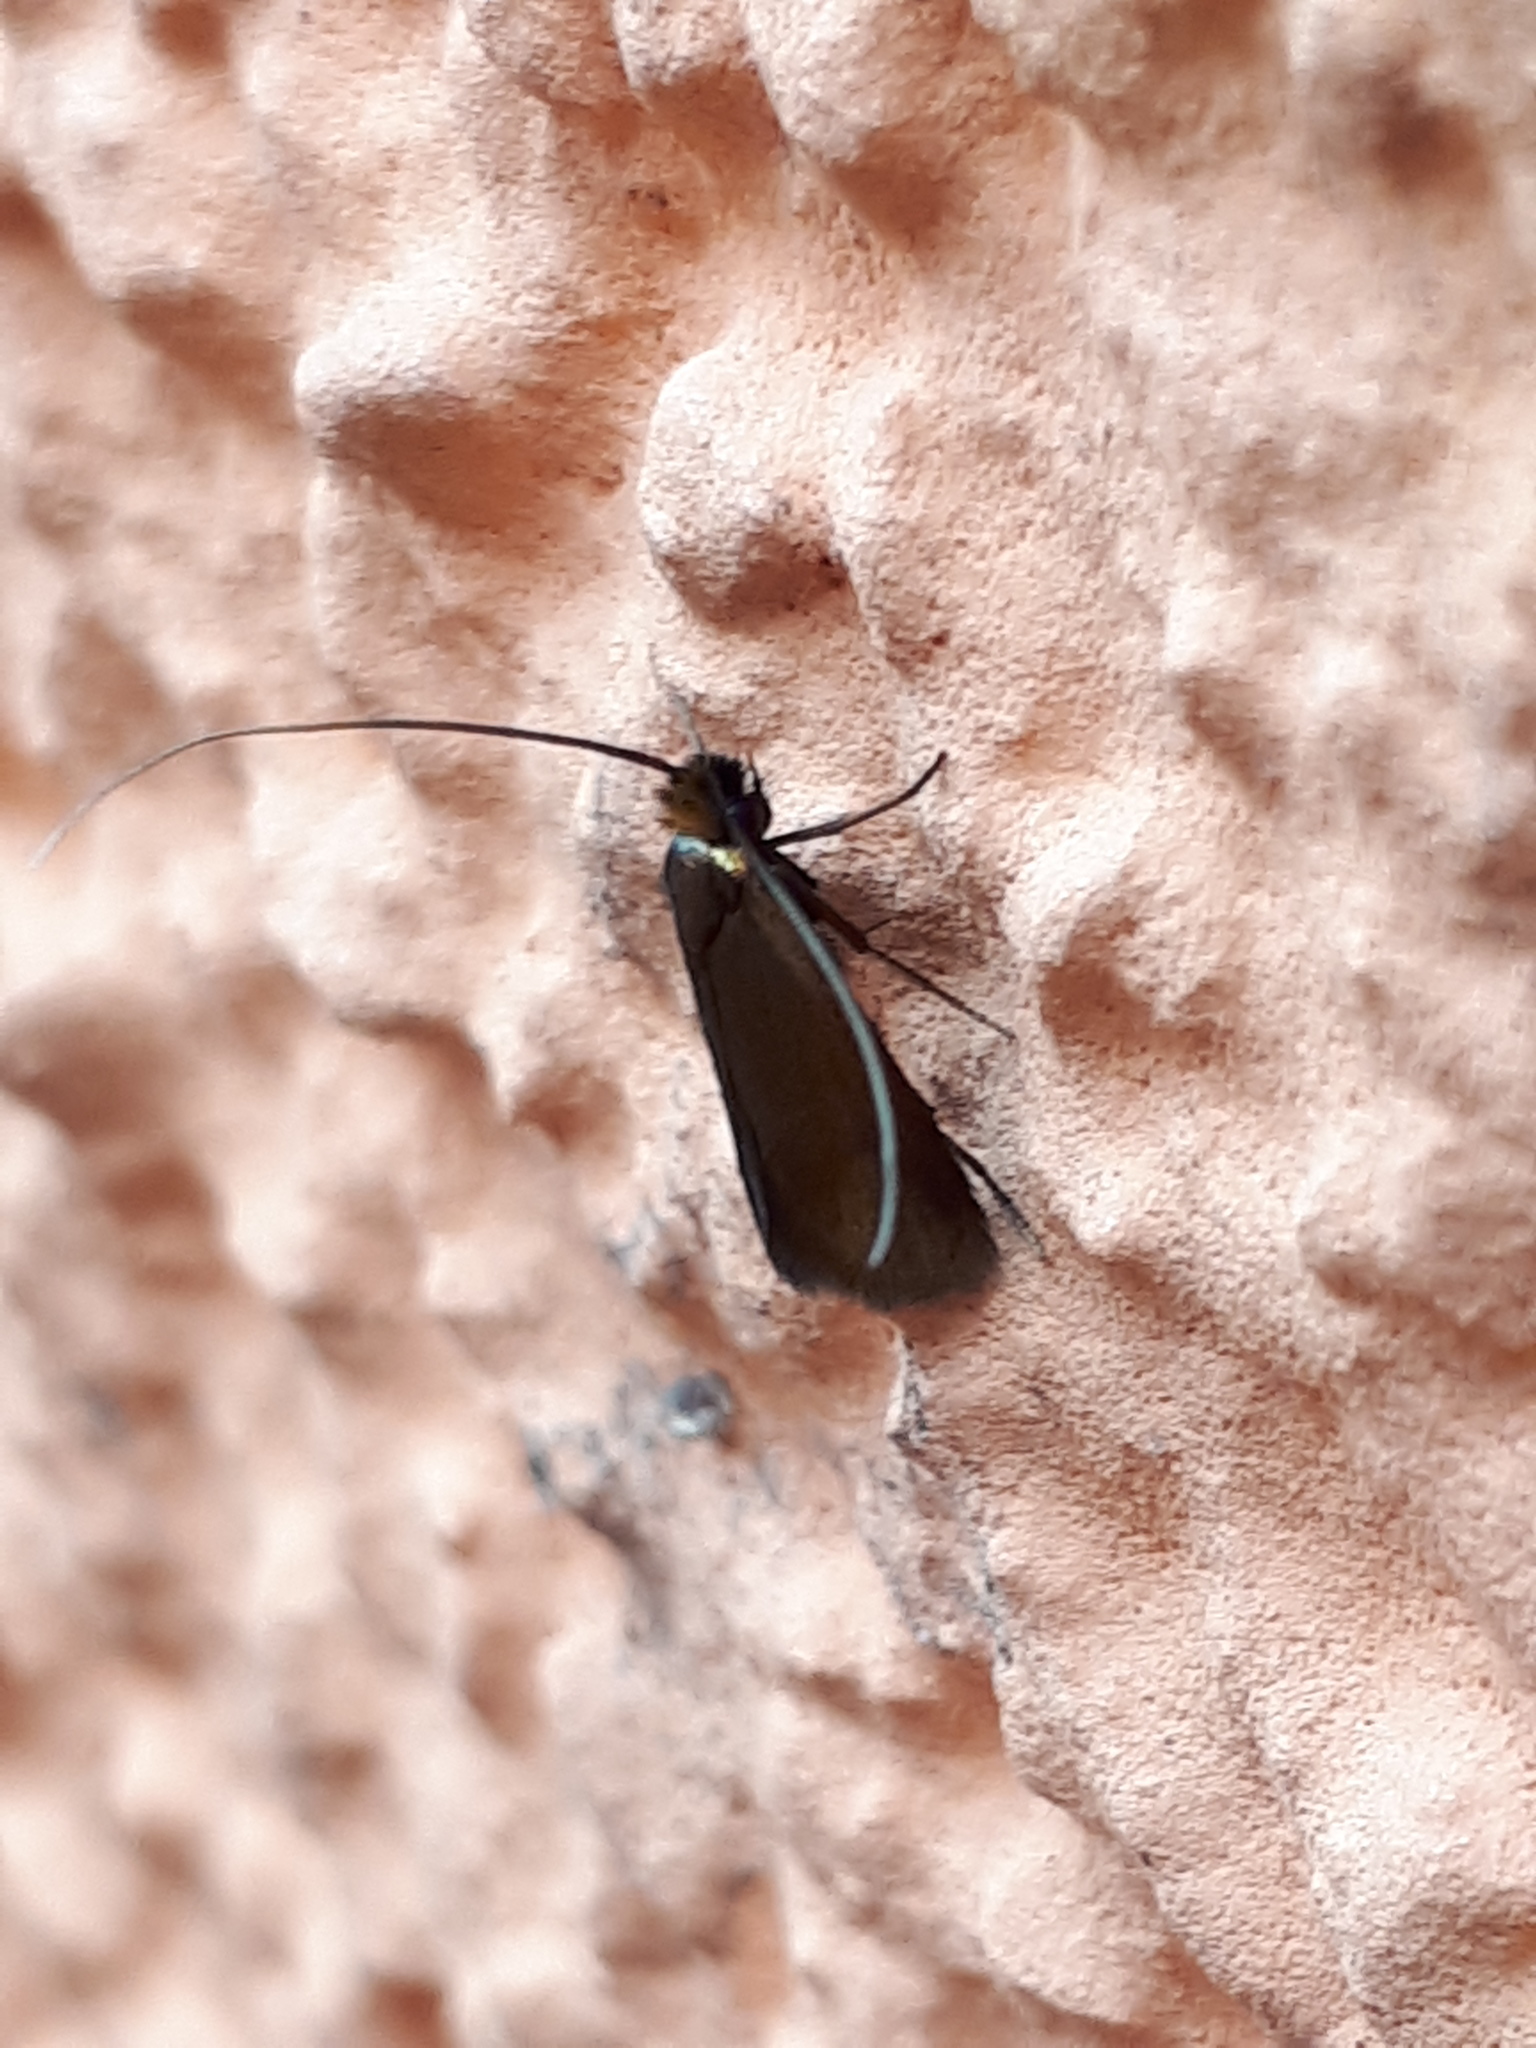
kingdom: Animalia
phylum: Arthropoda
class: Insecta
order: Lepidoptera
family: Adelidae
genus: Cauchas
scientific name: Cauchas rufimitrella
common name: Meadow long-horn
